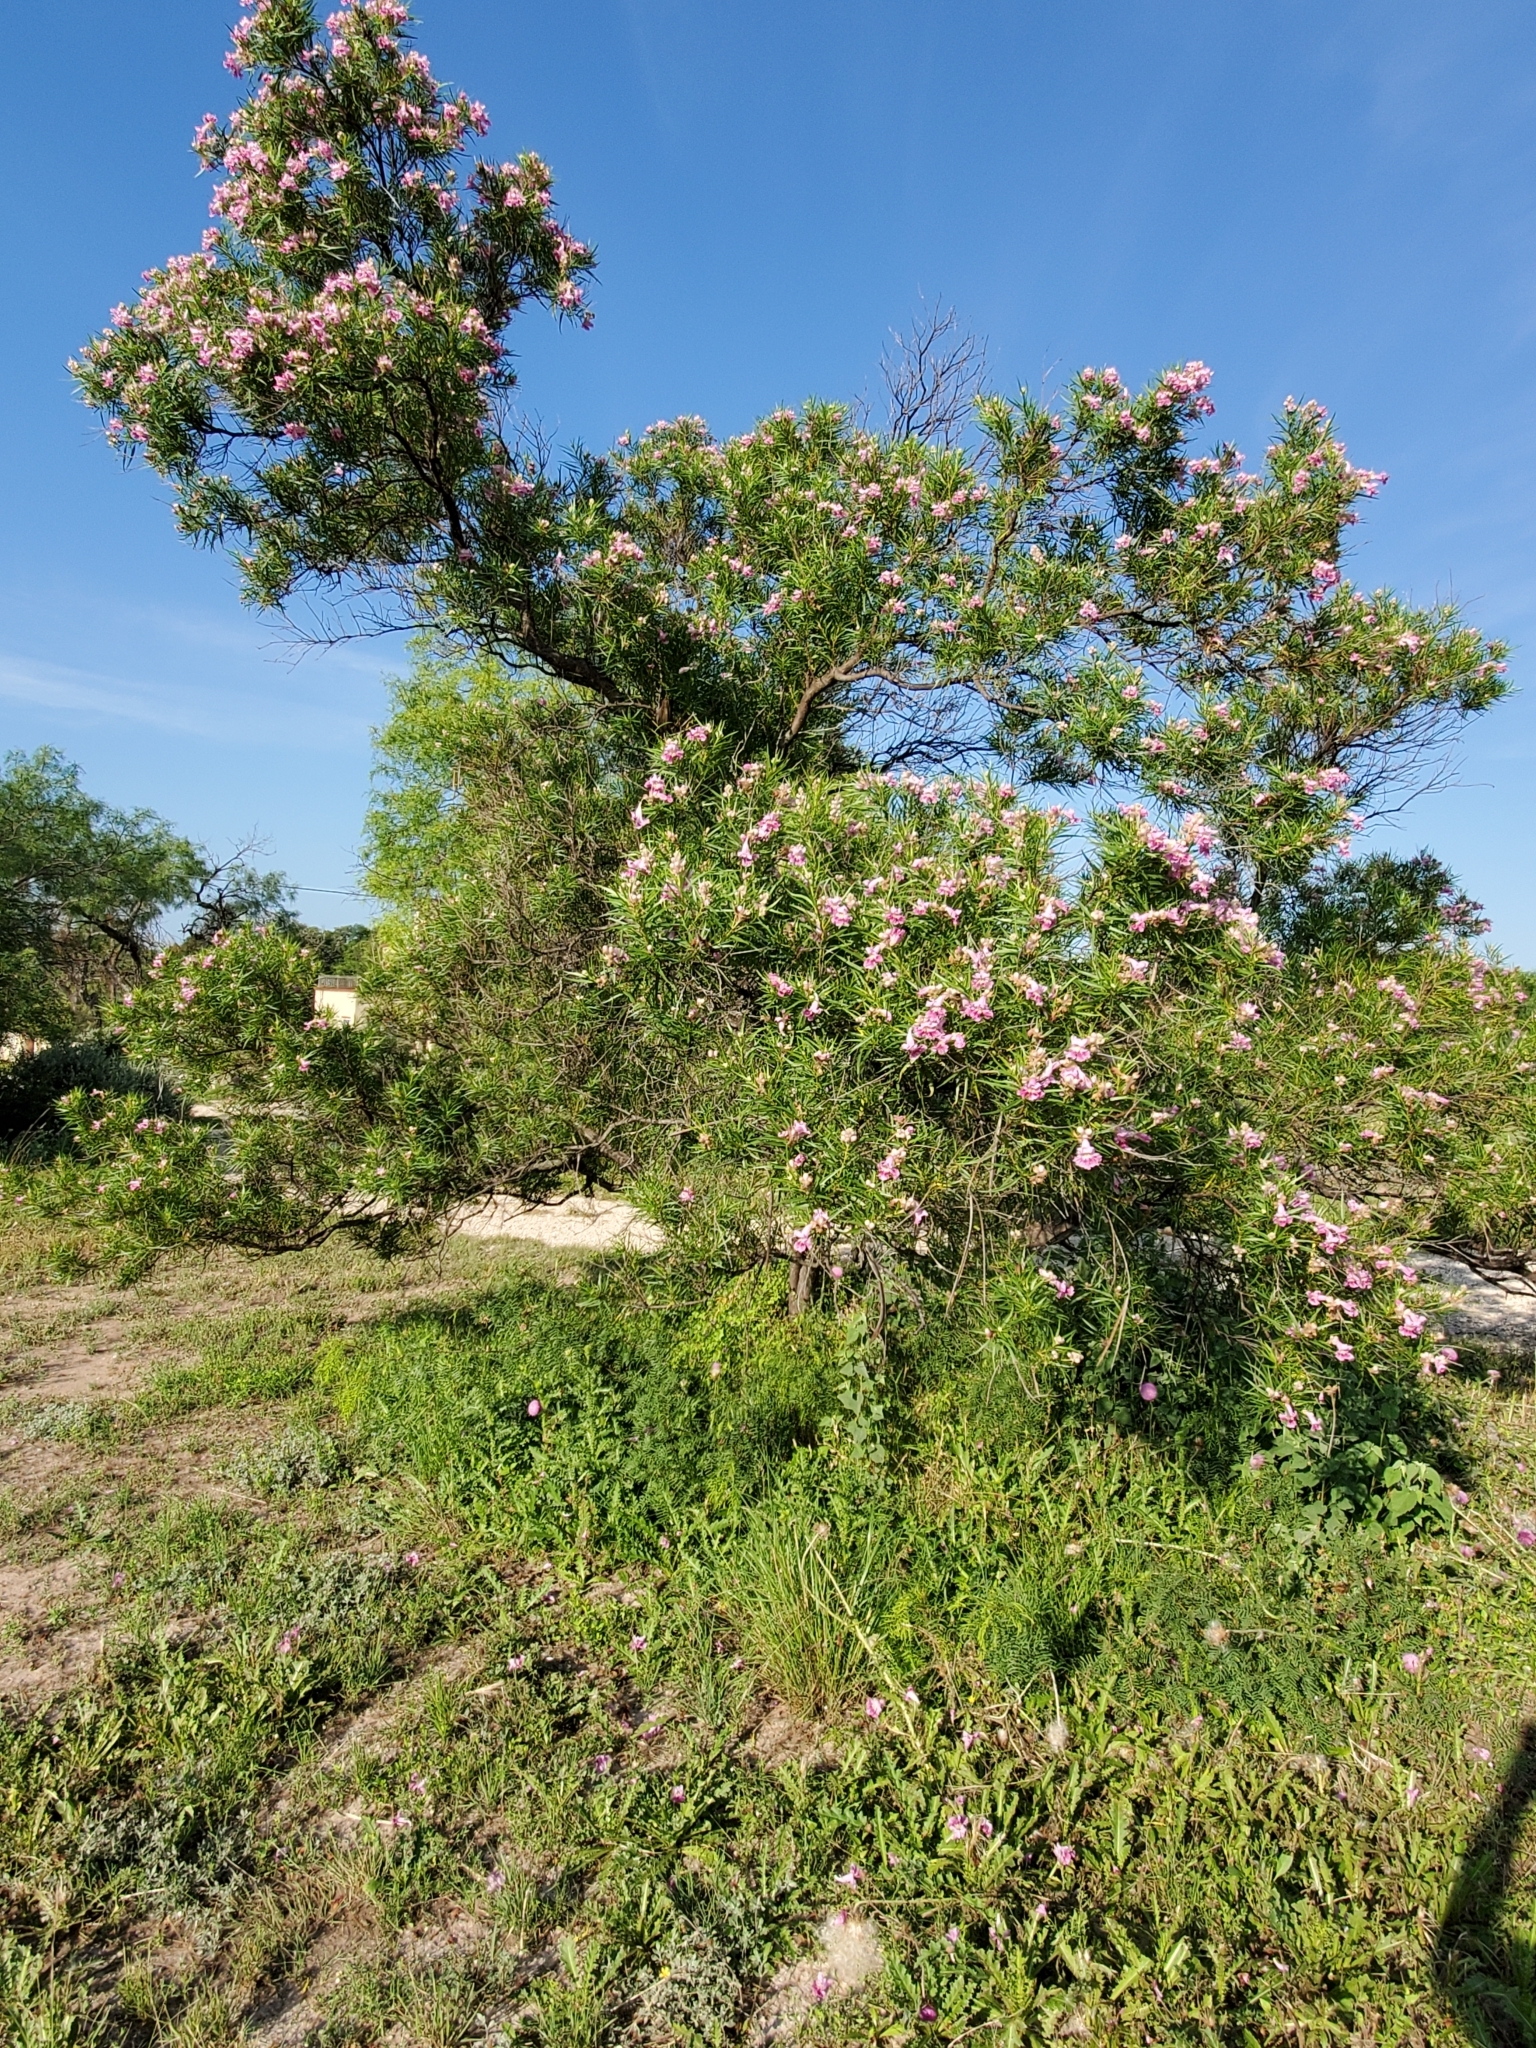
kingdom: Plantae
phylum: Tracheophyta
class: Magnoliopsida
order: Lamiales
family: Bignoniaceae
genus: Chilopsis
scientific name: Chilopsis linearis
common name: Desert-willow
